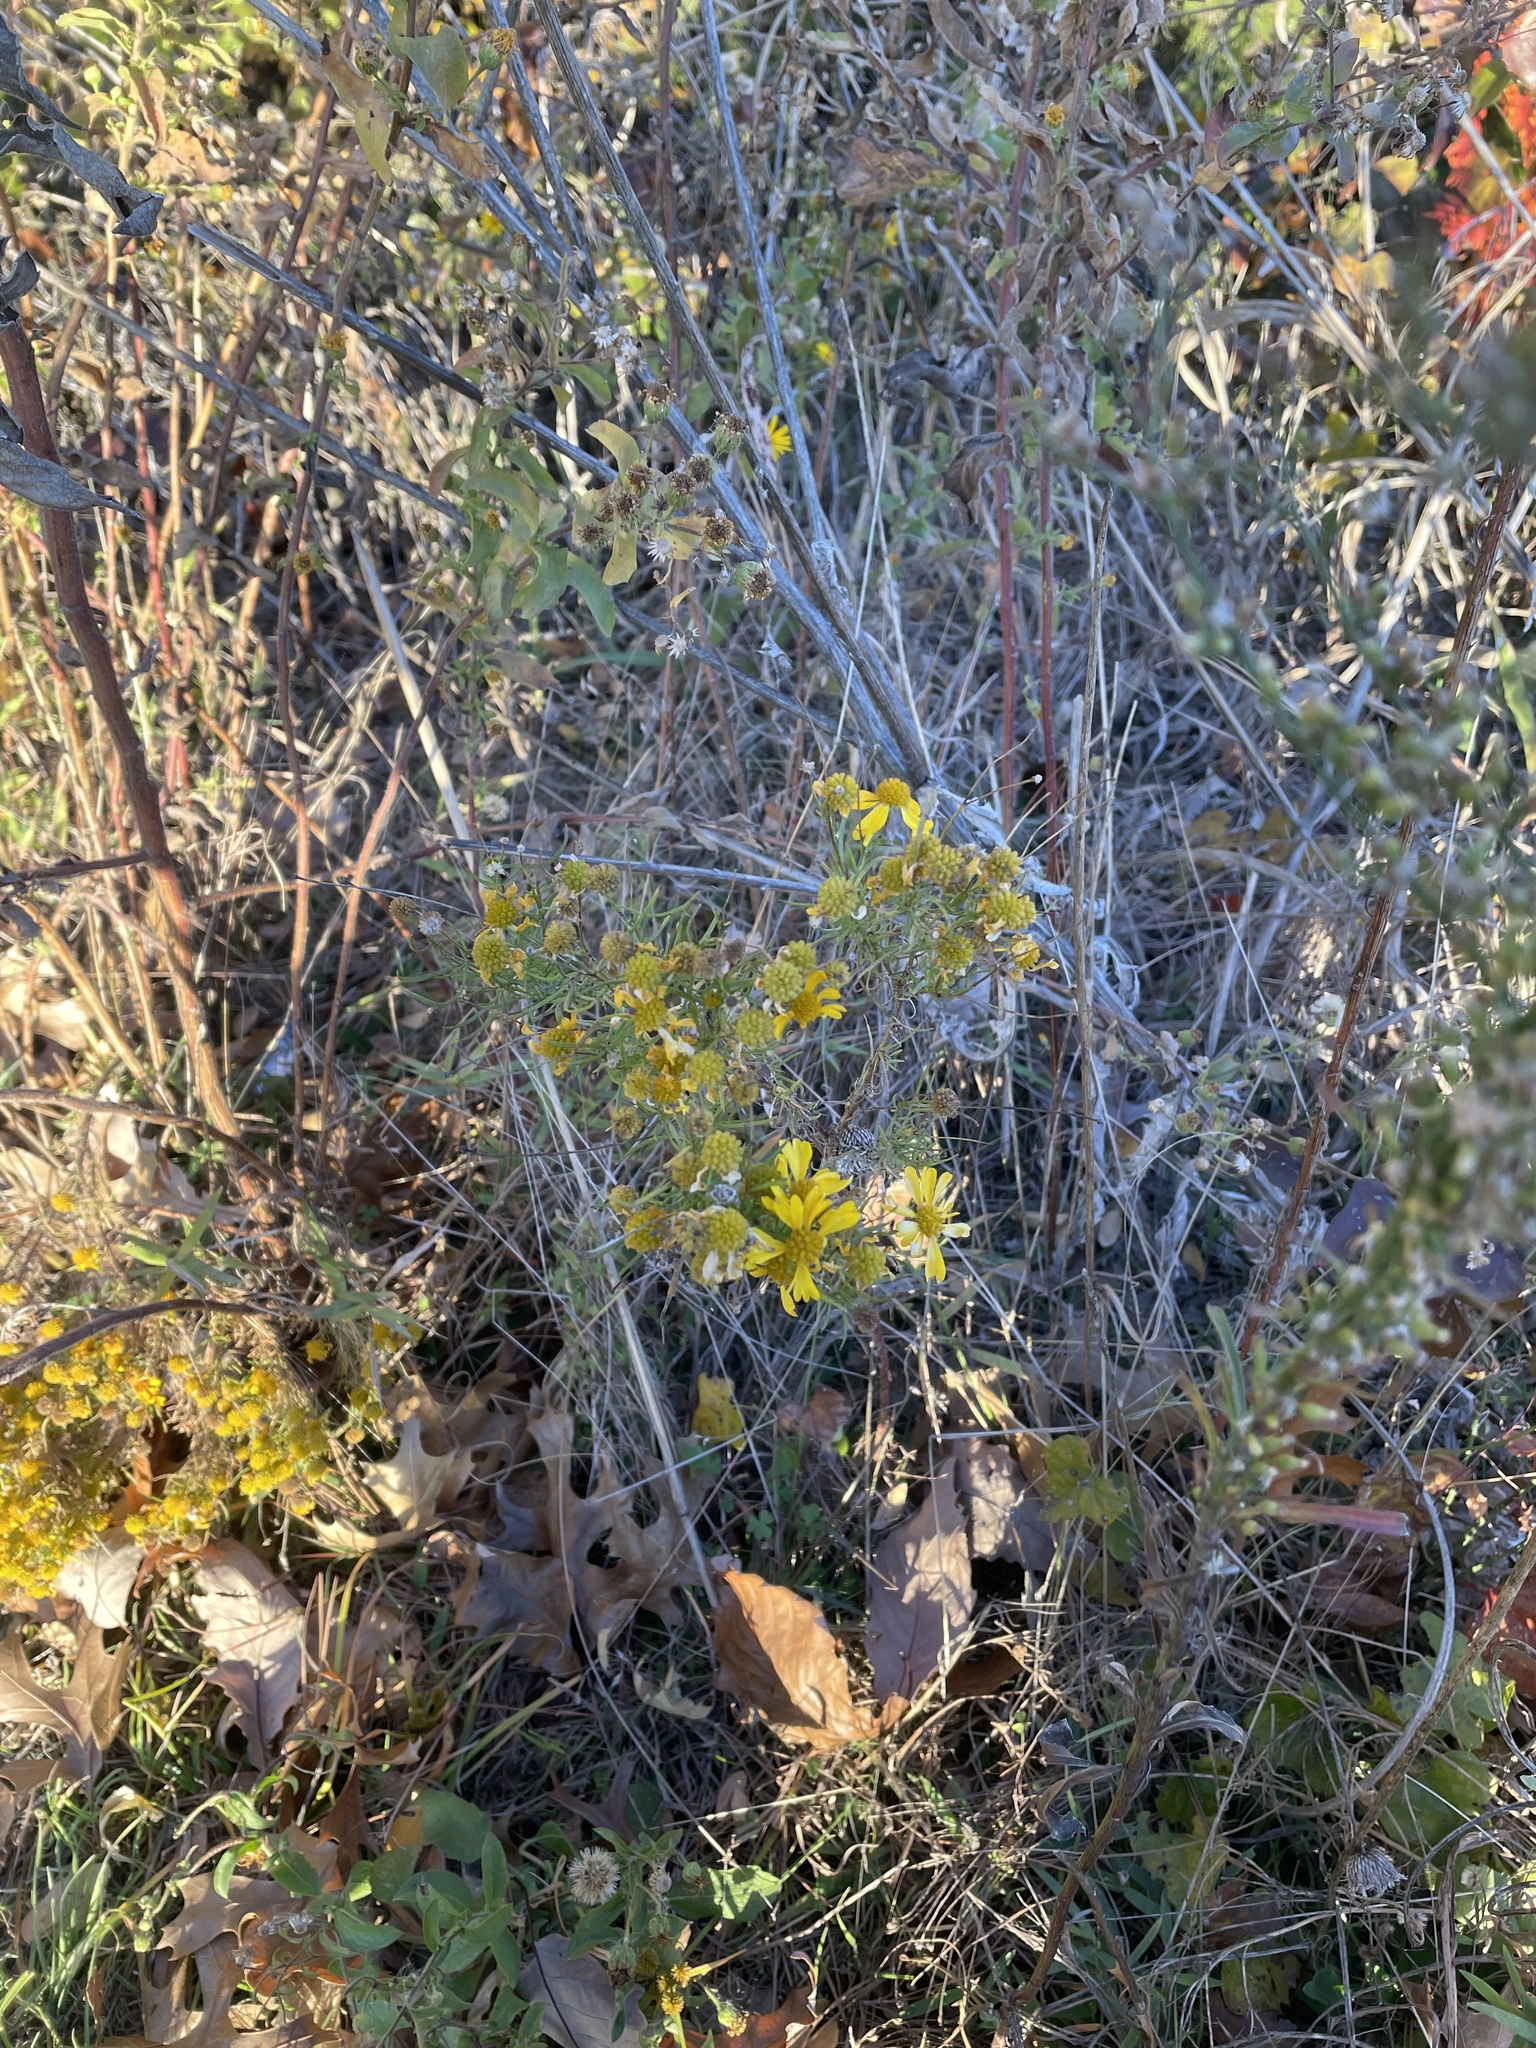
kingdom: Plantae
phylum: Tracheophyta
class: Magnoliopsida
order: Asterales
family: Asteraceae
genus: Helenium
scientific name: Helenium amarum
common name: Bitter sneezeweed
